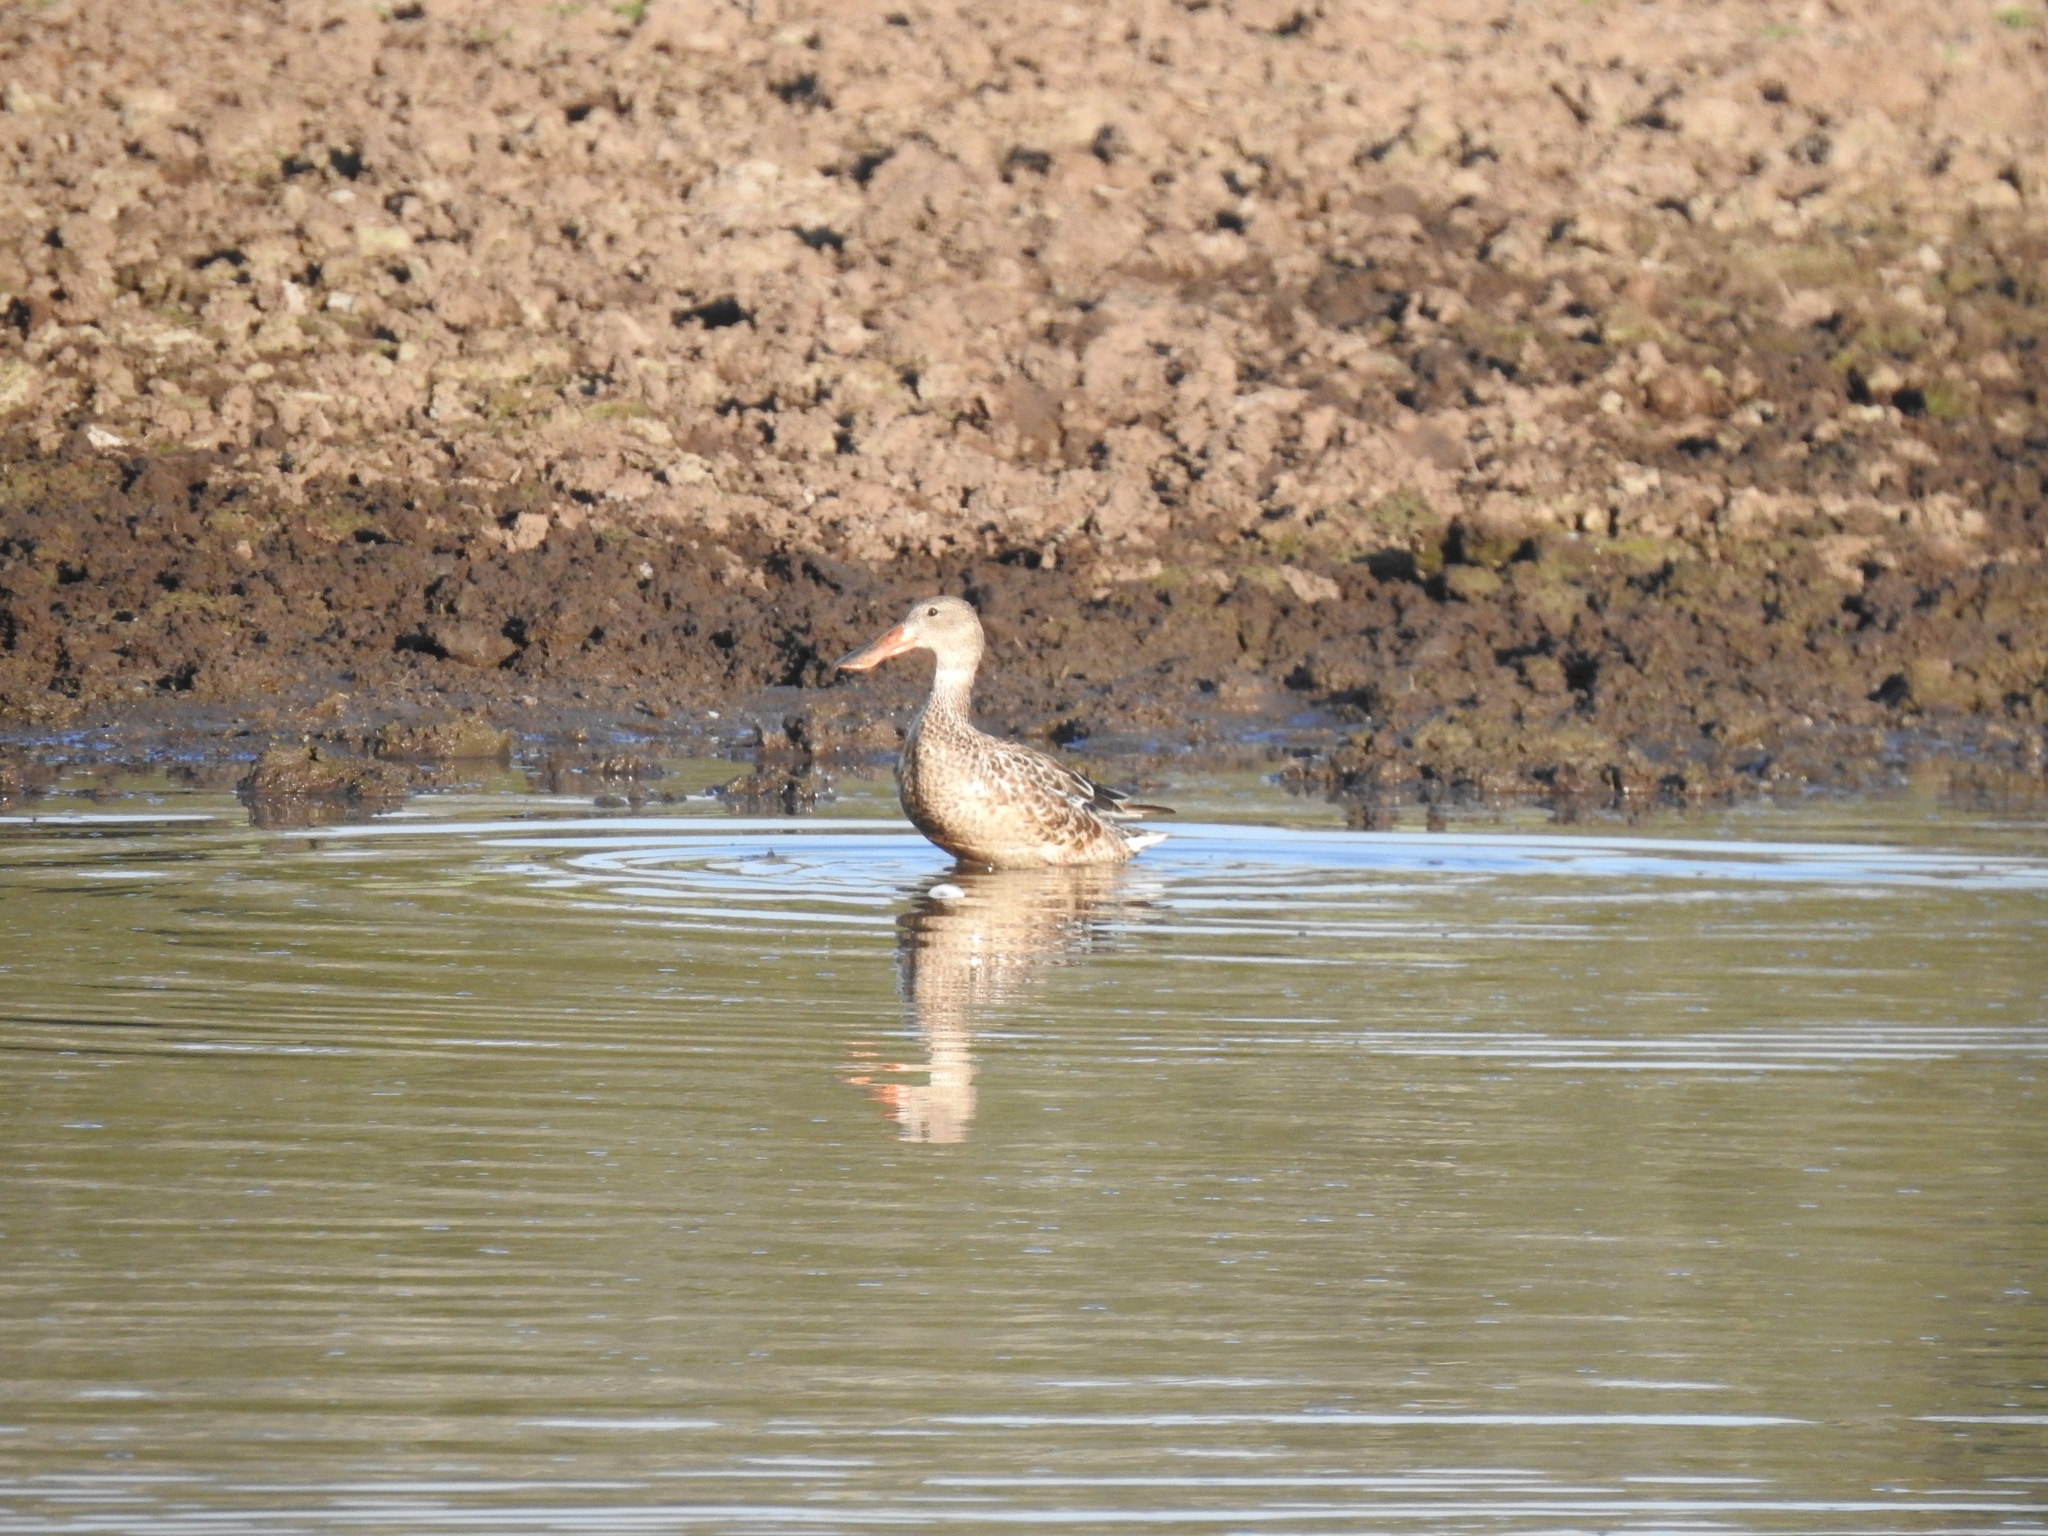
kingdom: Animalia
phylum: Chordata
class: Aves
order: Anseriformes
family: Anatidae
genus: Spatula
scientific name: Spatula clypeata
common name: Northern shoveler
